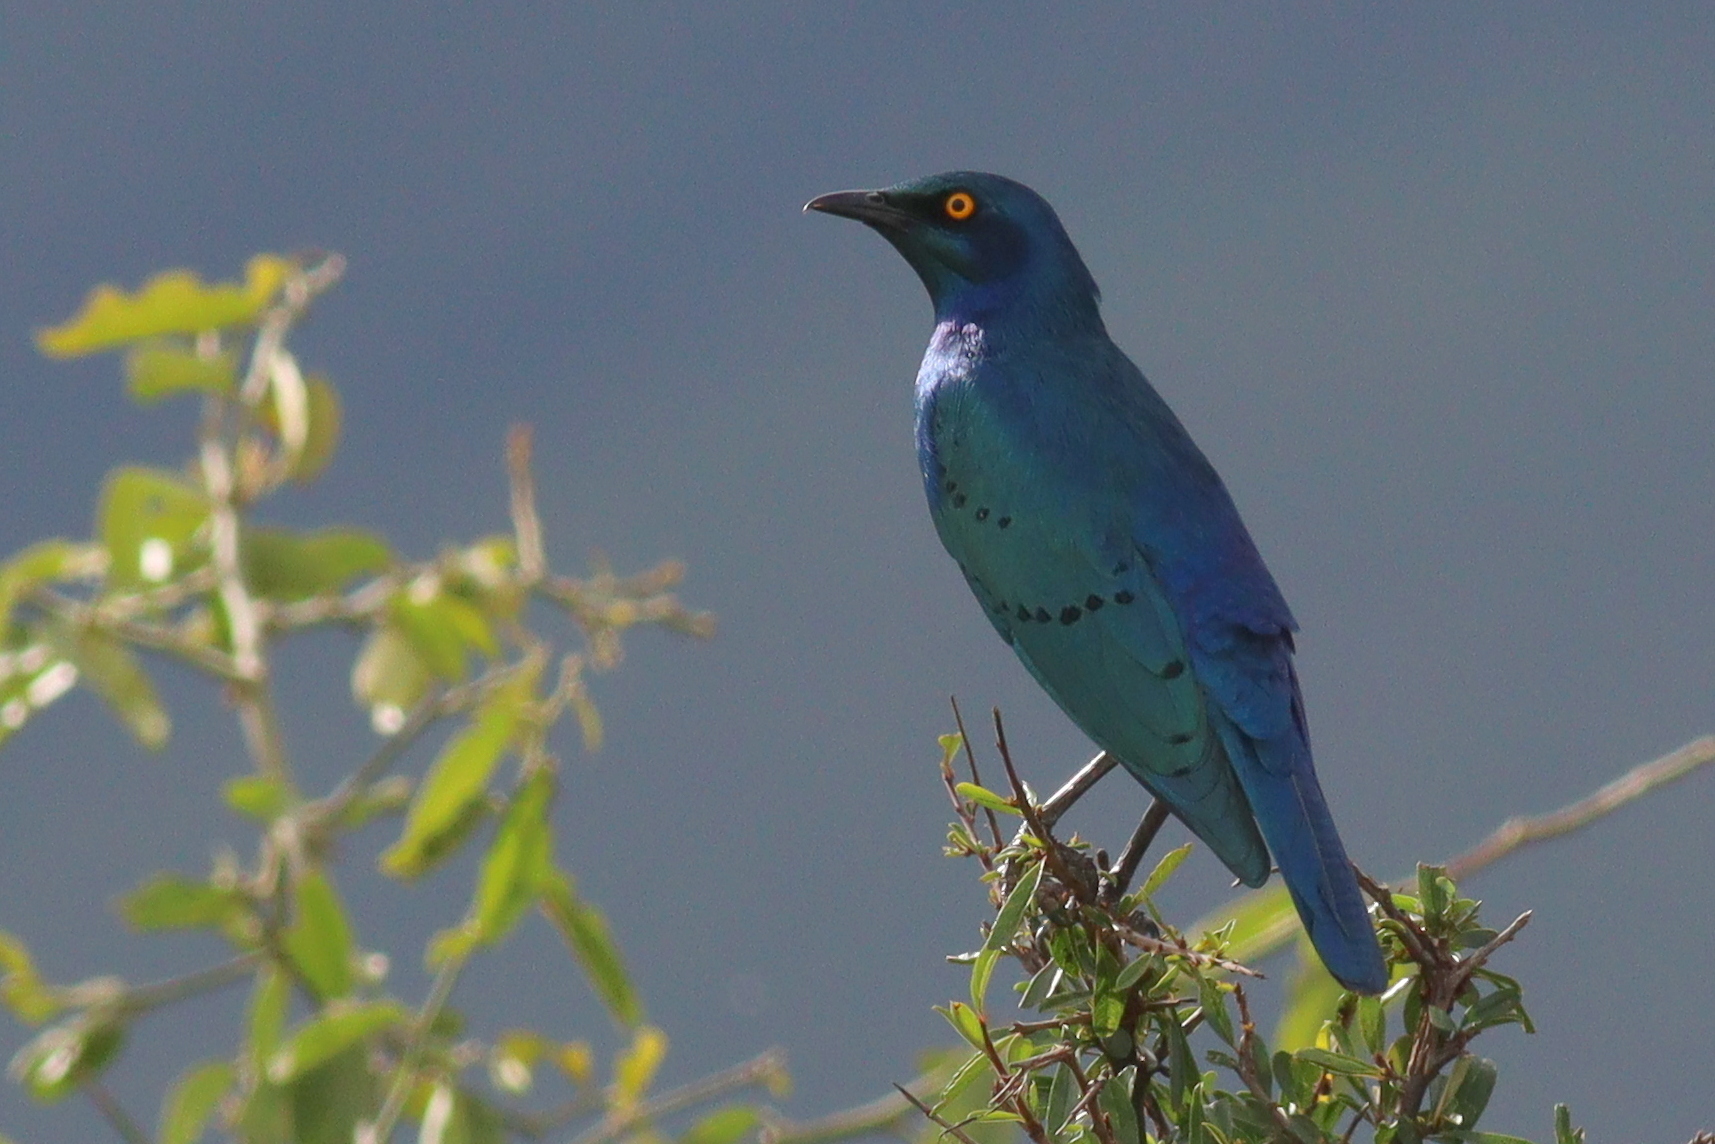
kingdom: Animalia
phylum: Chordata
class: Aves
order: Passeriformes
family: Sturnidae
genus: Lamprotornis
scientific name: Lamprotornis chalybaeus
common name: Greater blue-eared starling
